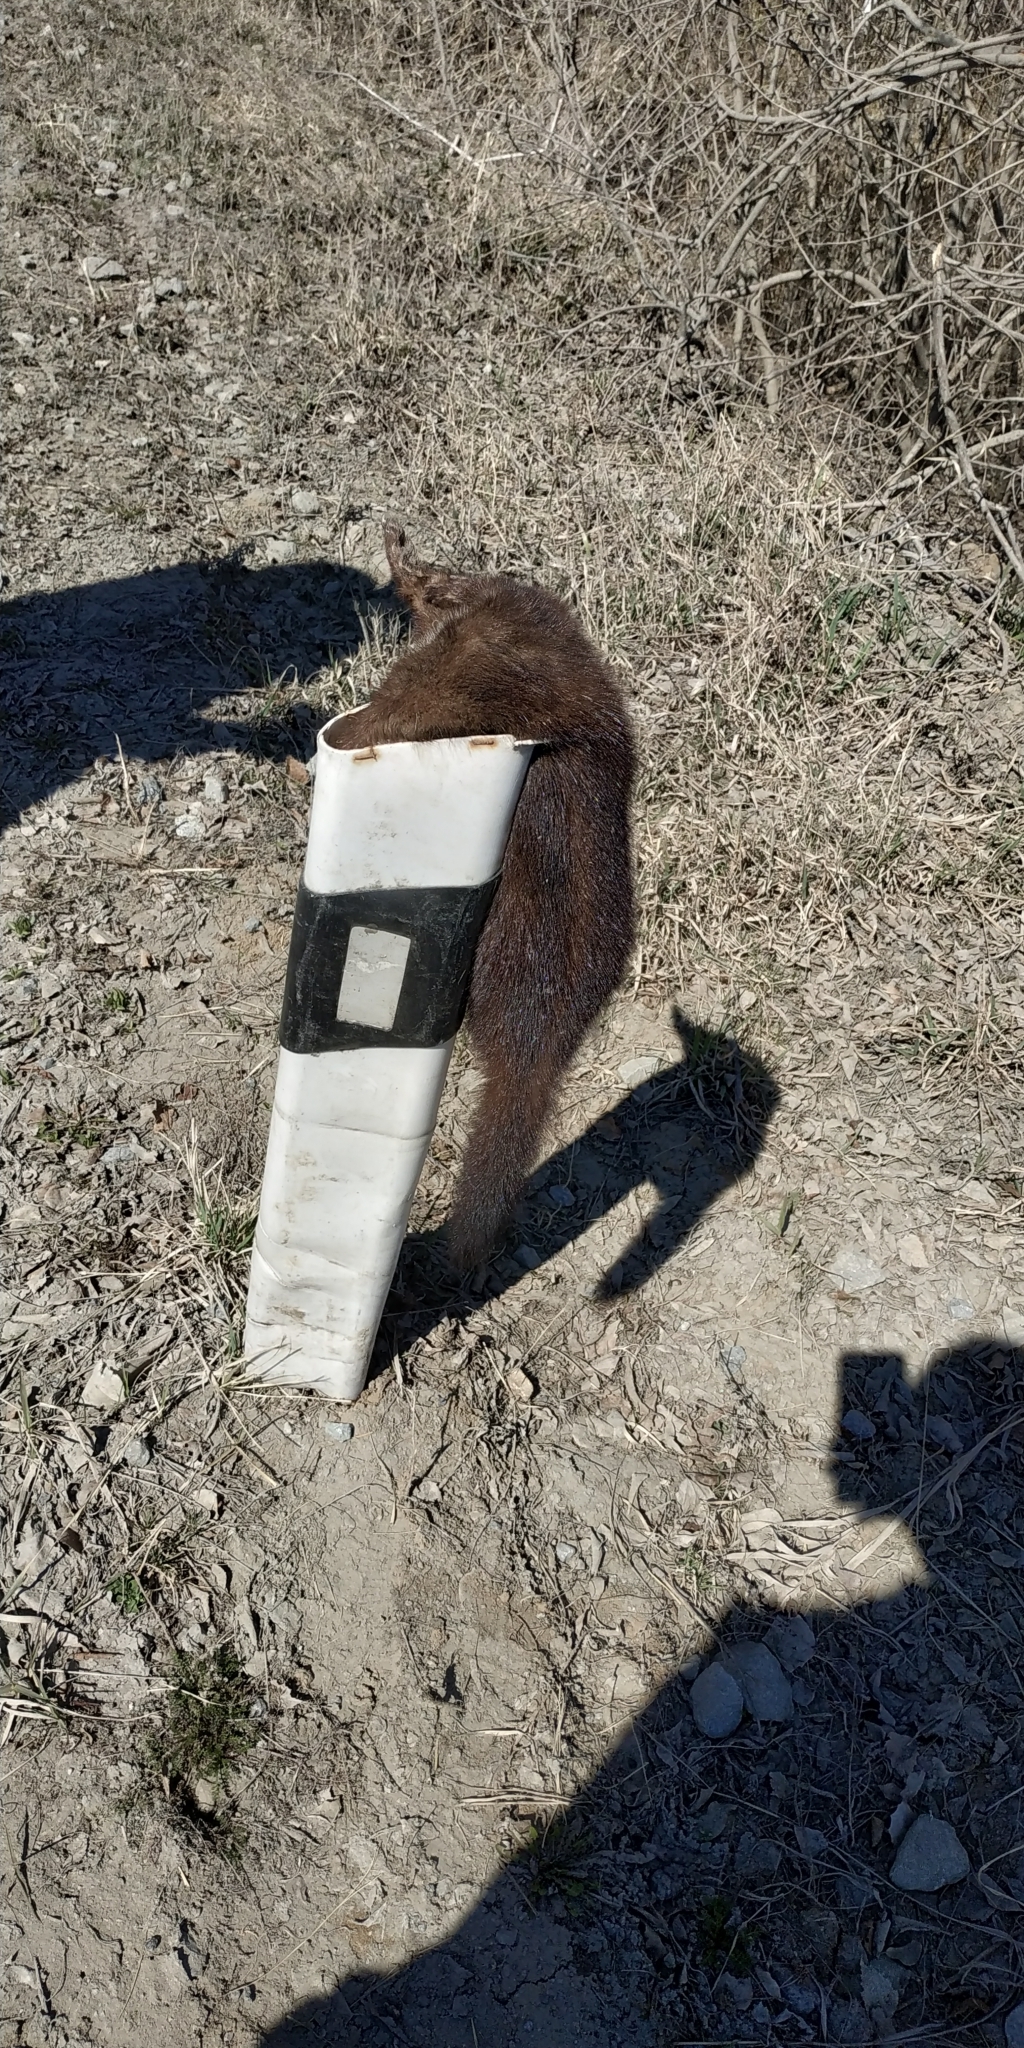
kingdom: Animalia
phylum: Chordata
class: Mammalia
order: Carnivora
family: Mustelidae
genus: Mustela
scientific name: Mustela
